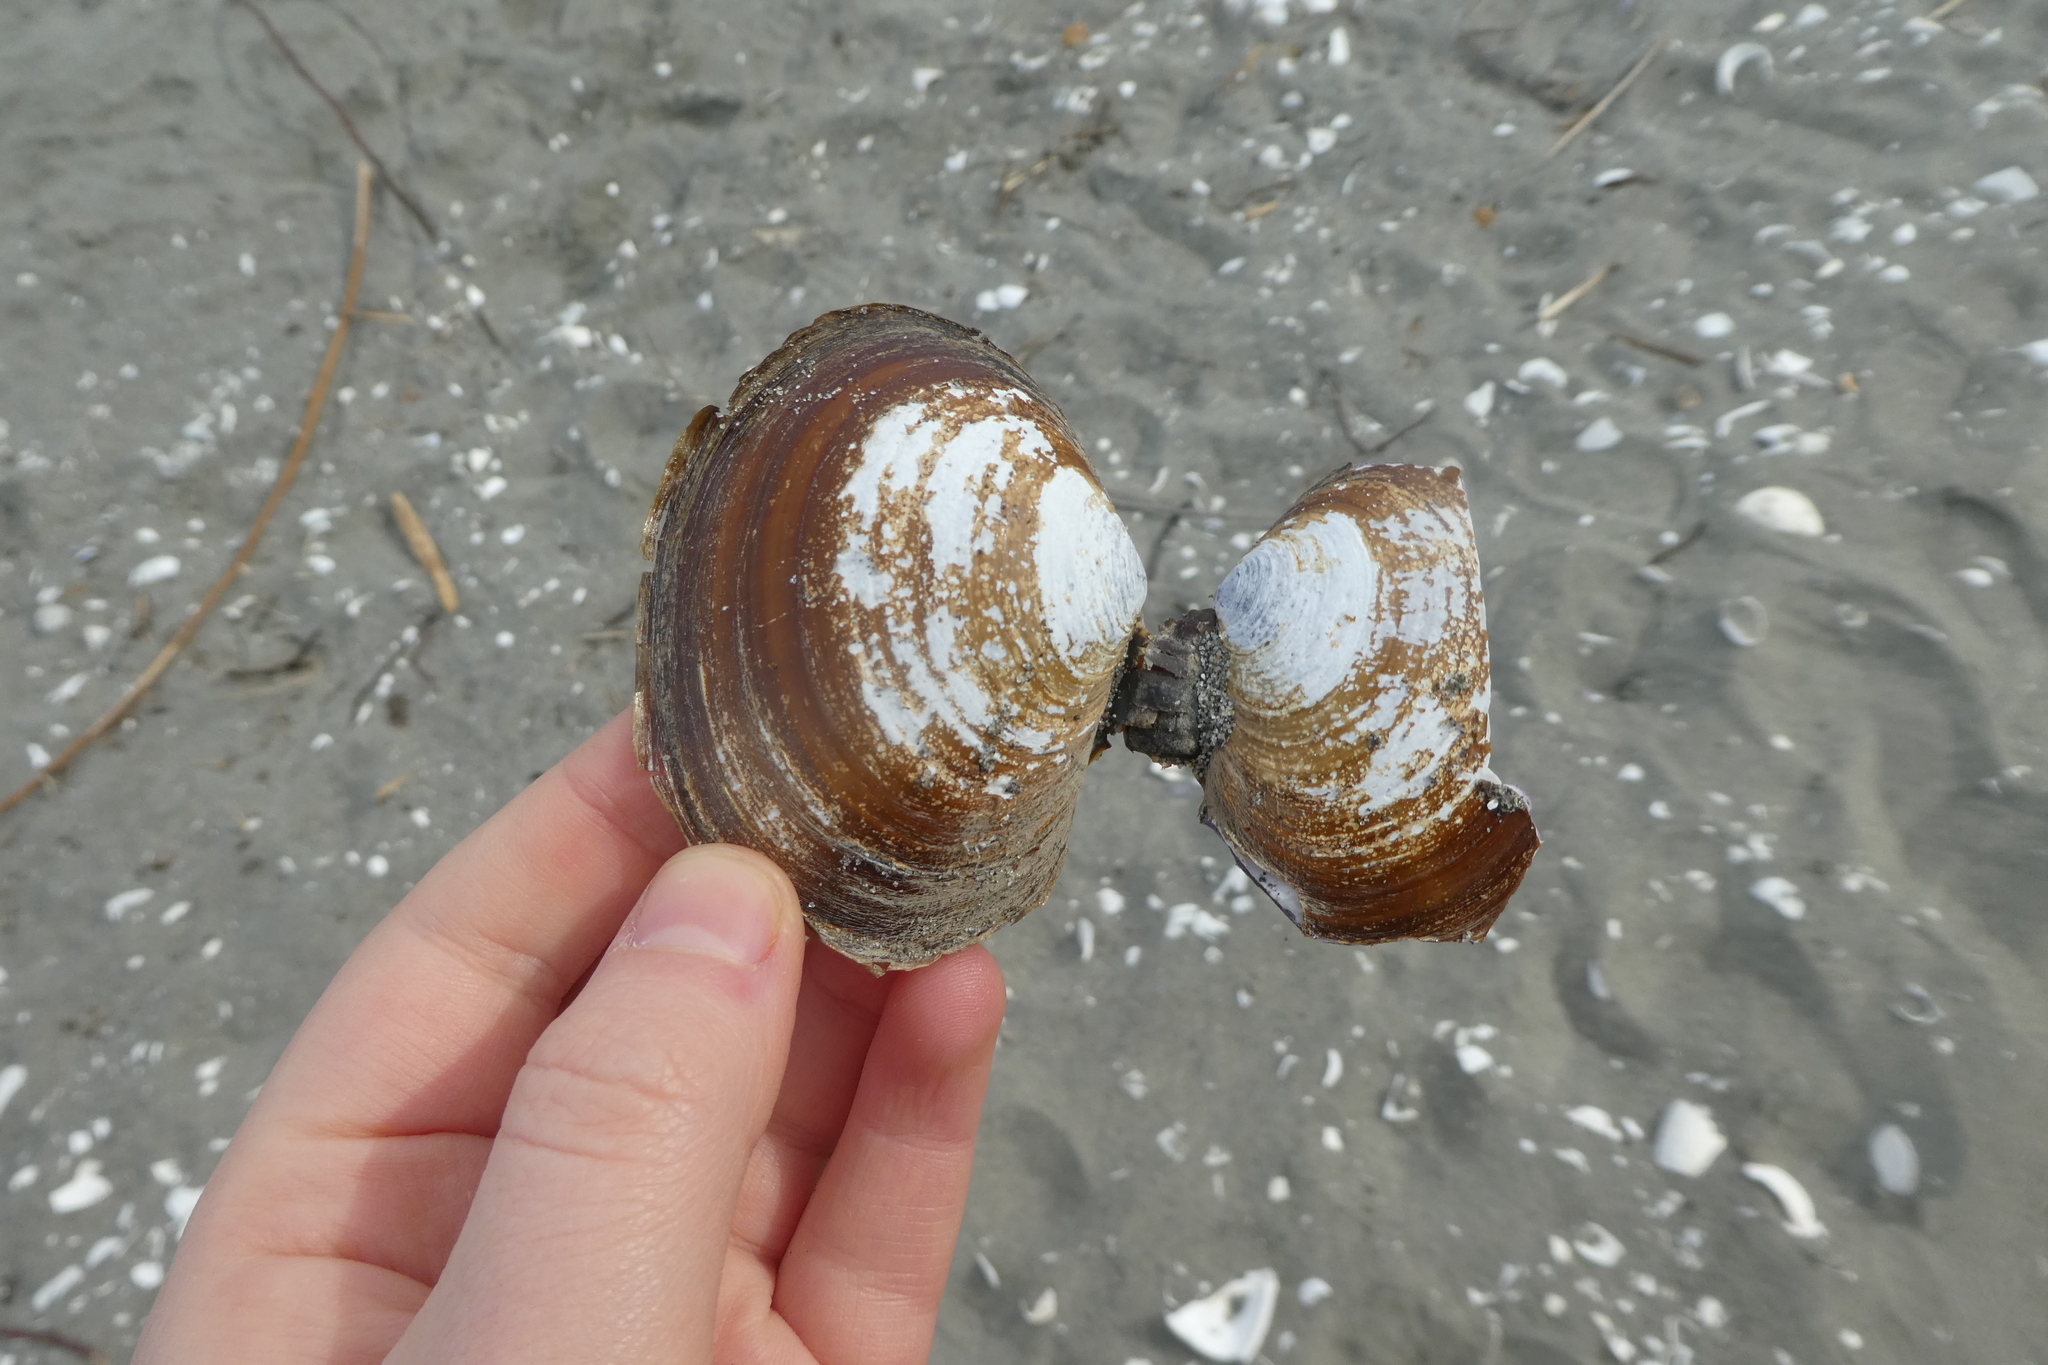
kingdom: Animalia
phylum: Mollusca
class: Bivalvia
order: Cardiida
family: Psammobiidae
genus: Nuttallia
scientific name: Nuttallia obscurata
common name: Purple mahogany-clam
